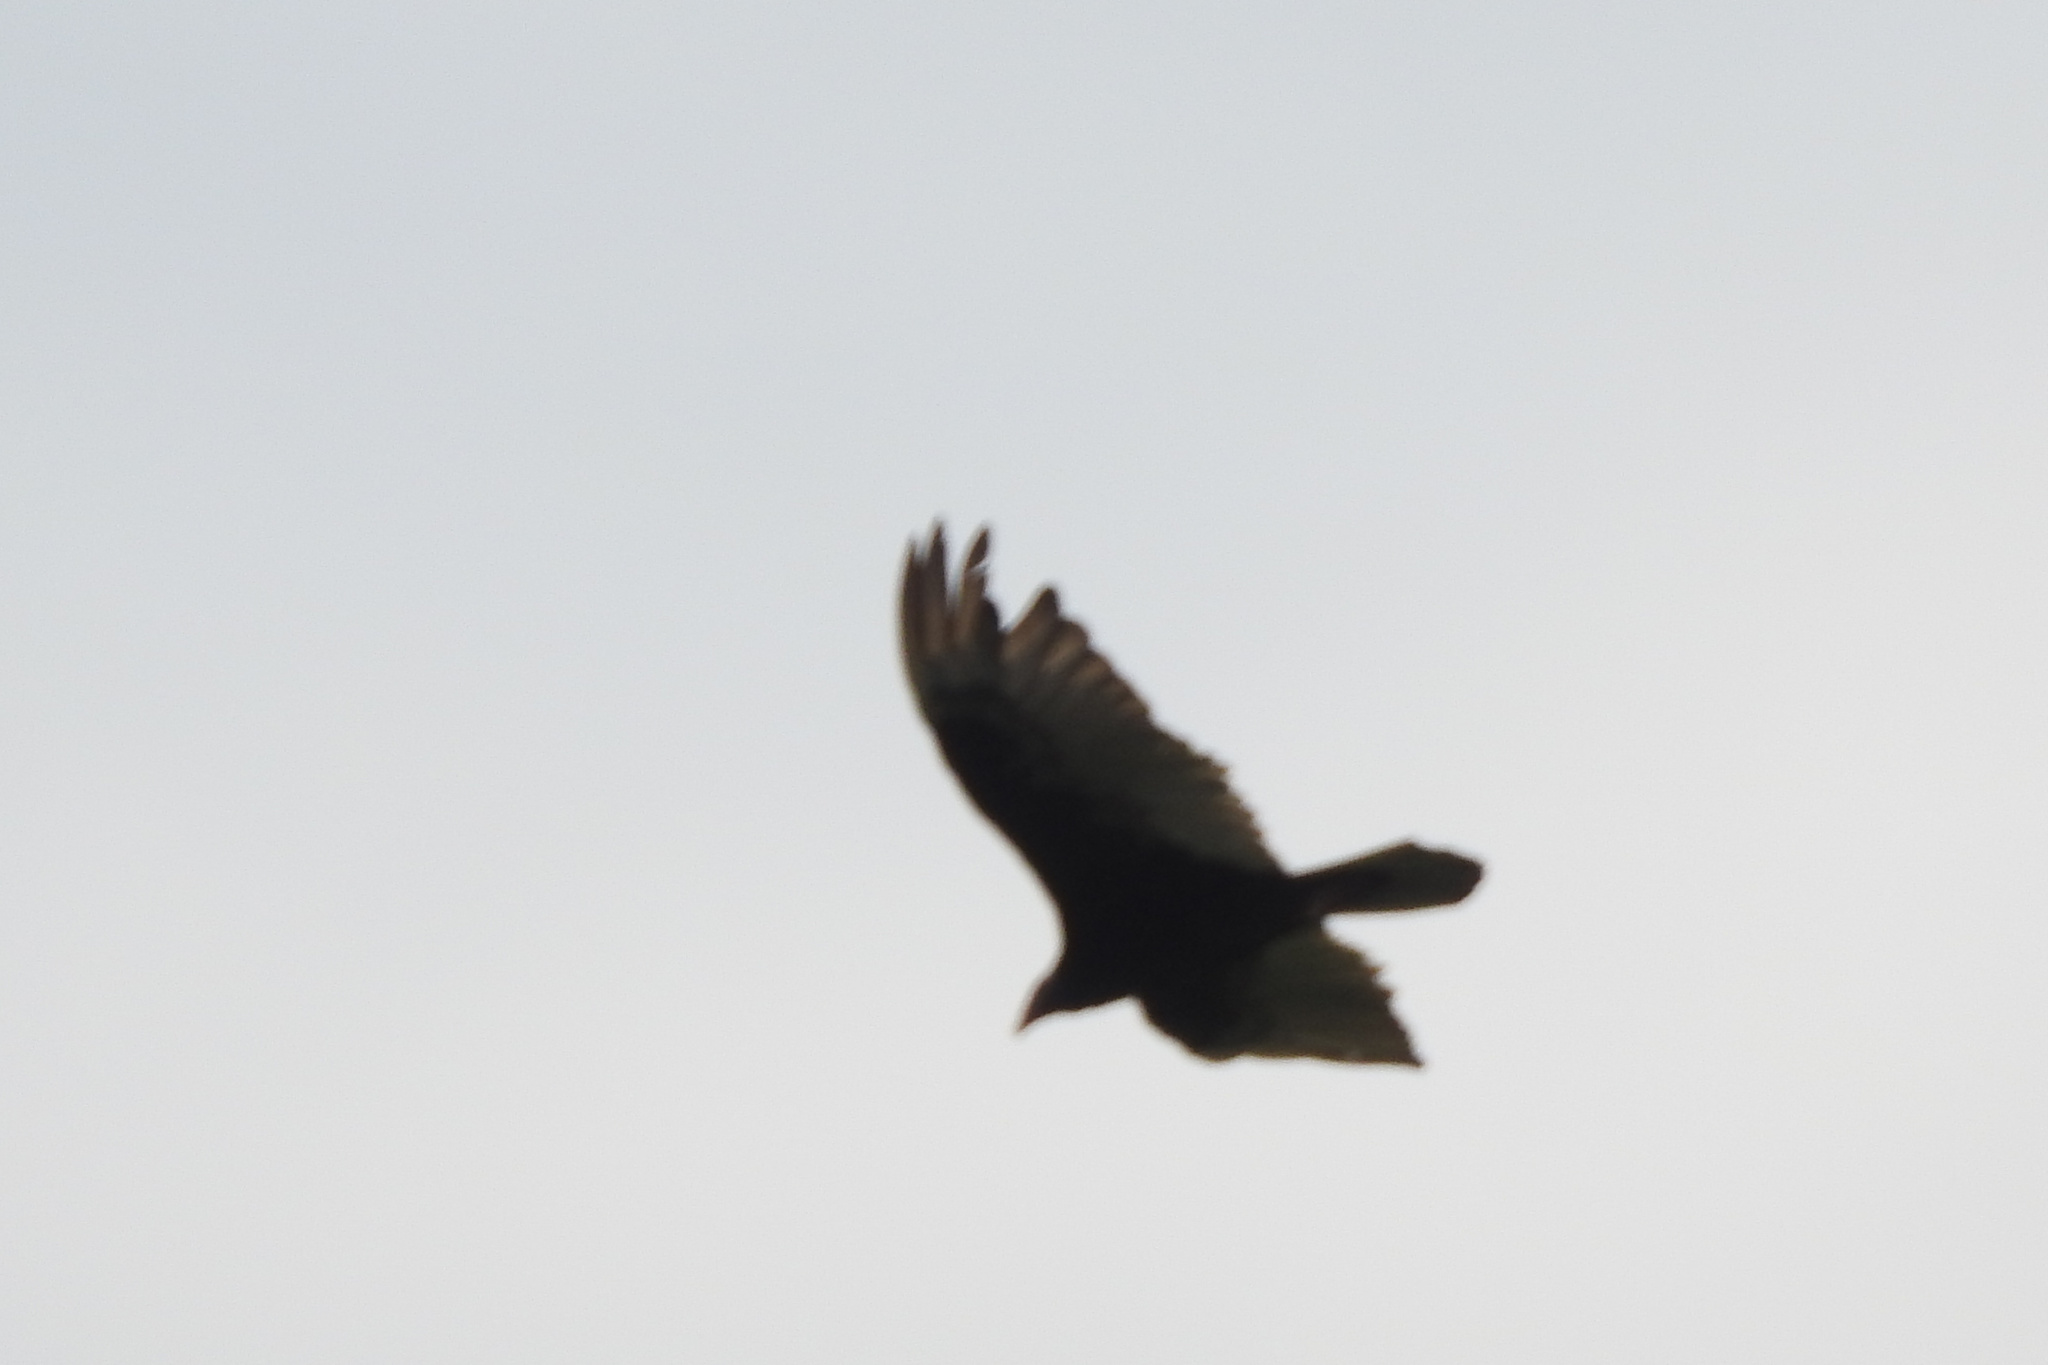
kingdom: Animalia
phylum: Chordata
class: Aves
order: Accipitriformes
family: Cathartidae
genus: Cathartes
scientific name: Cathartes aura
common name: Turkey vulture
